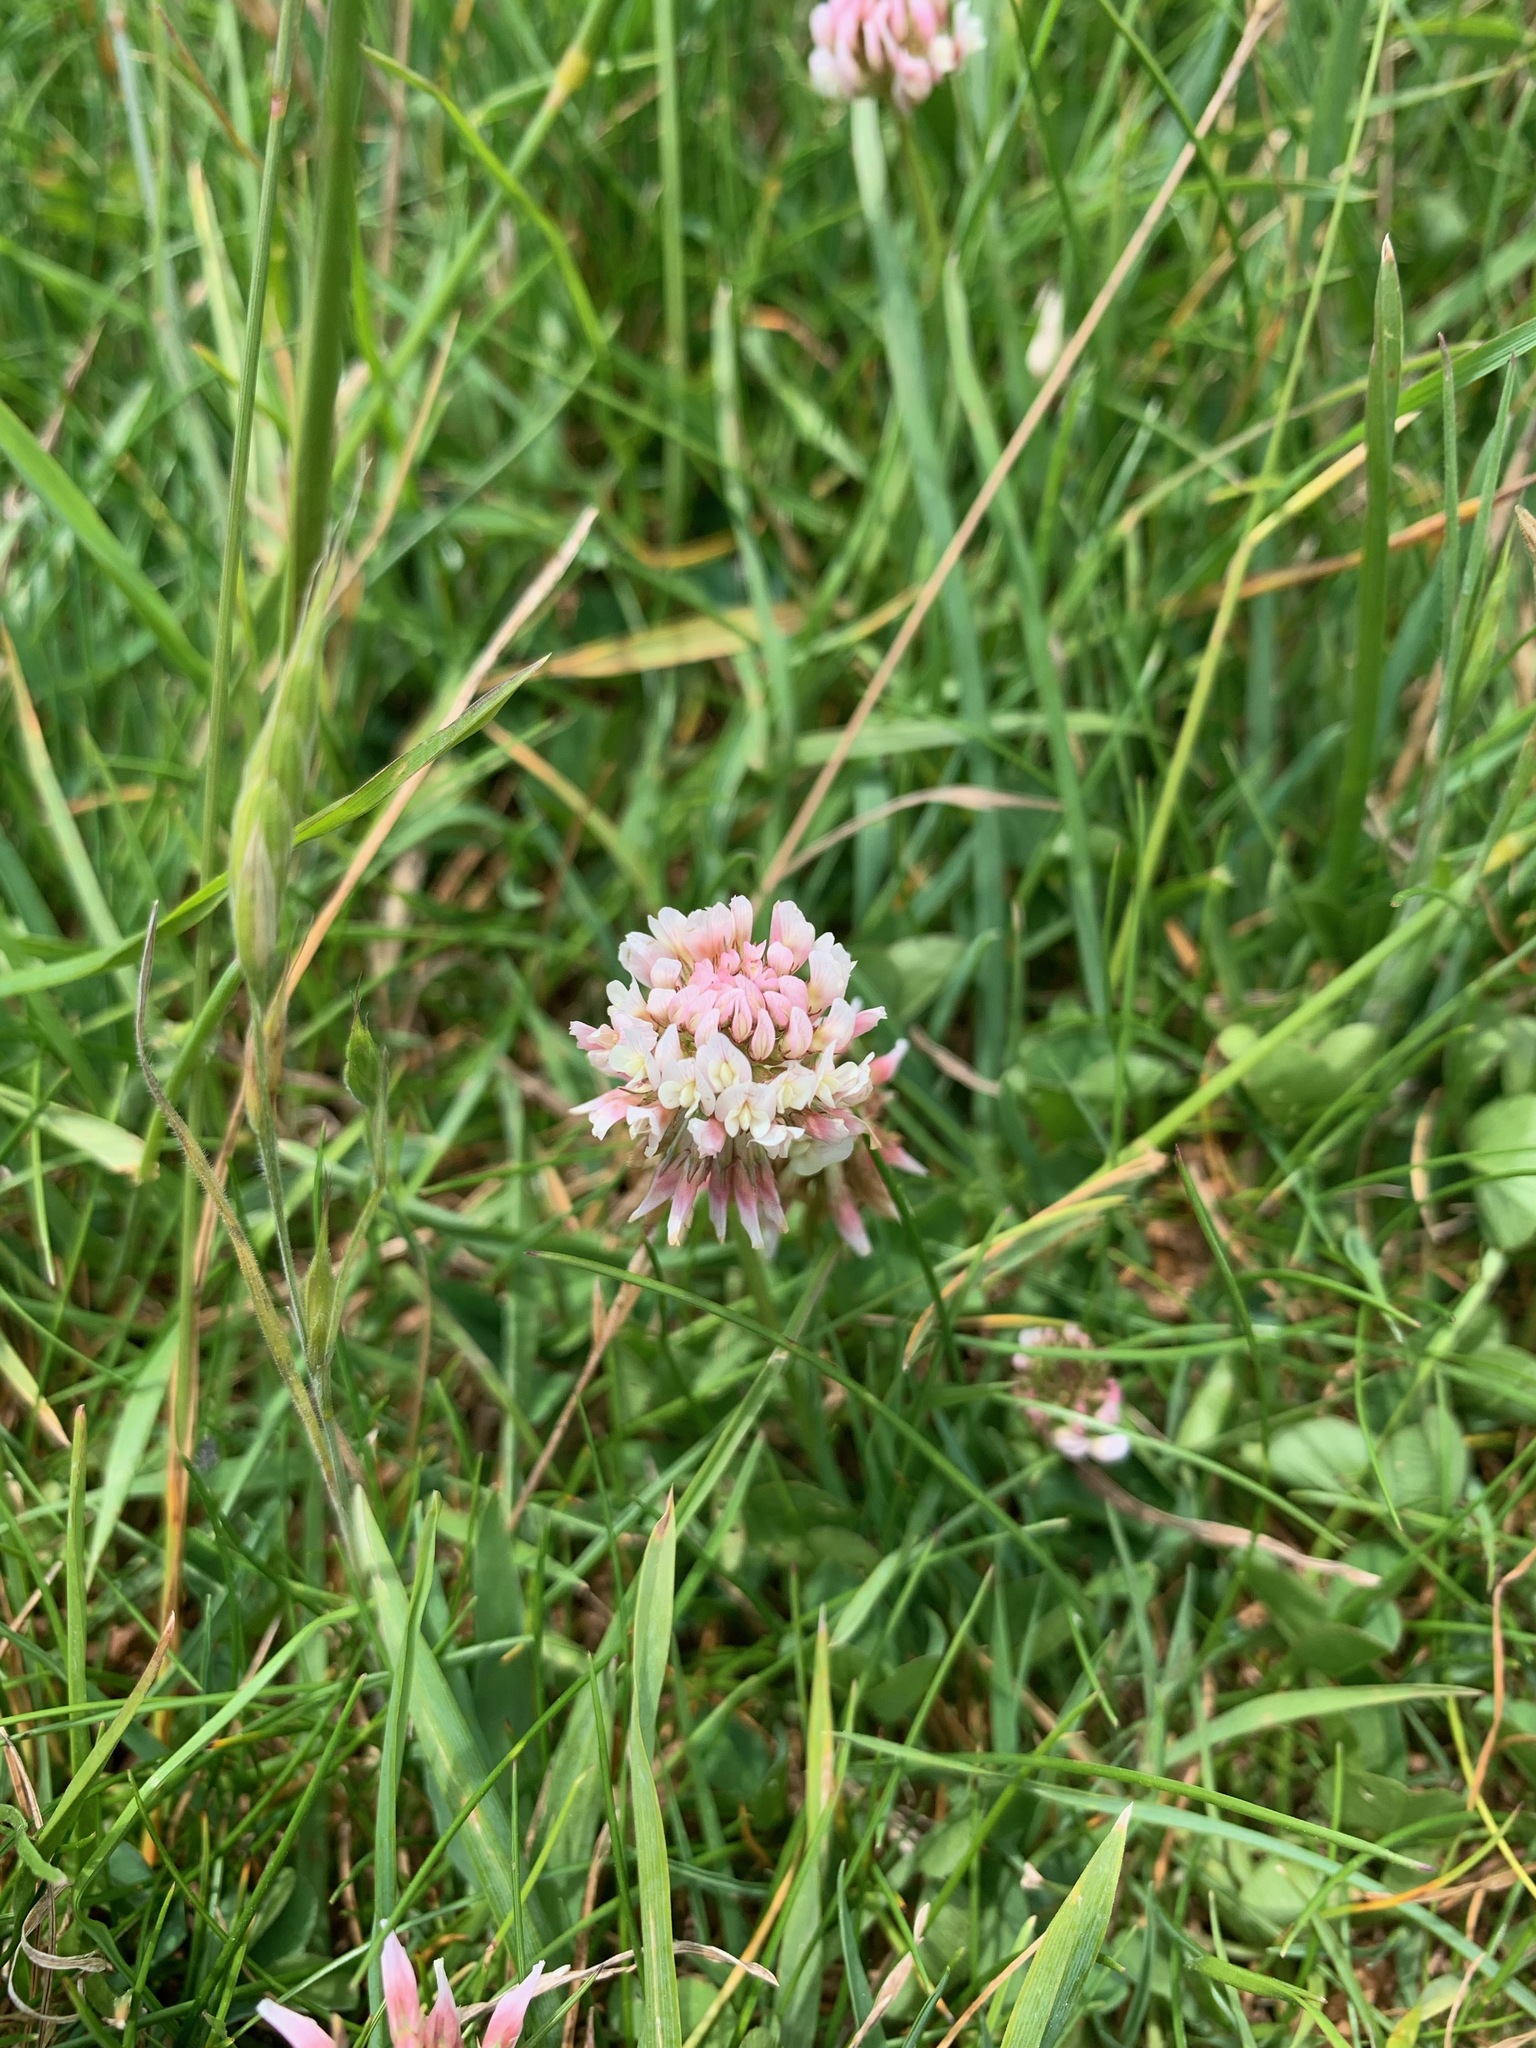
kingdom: Plantae
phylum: Tracheophyta
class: Magnoliopsida
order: Fabales
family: Fabaceae
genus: Trifolium
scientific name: Trifolium repens
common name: White clover
